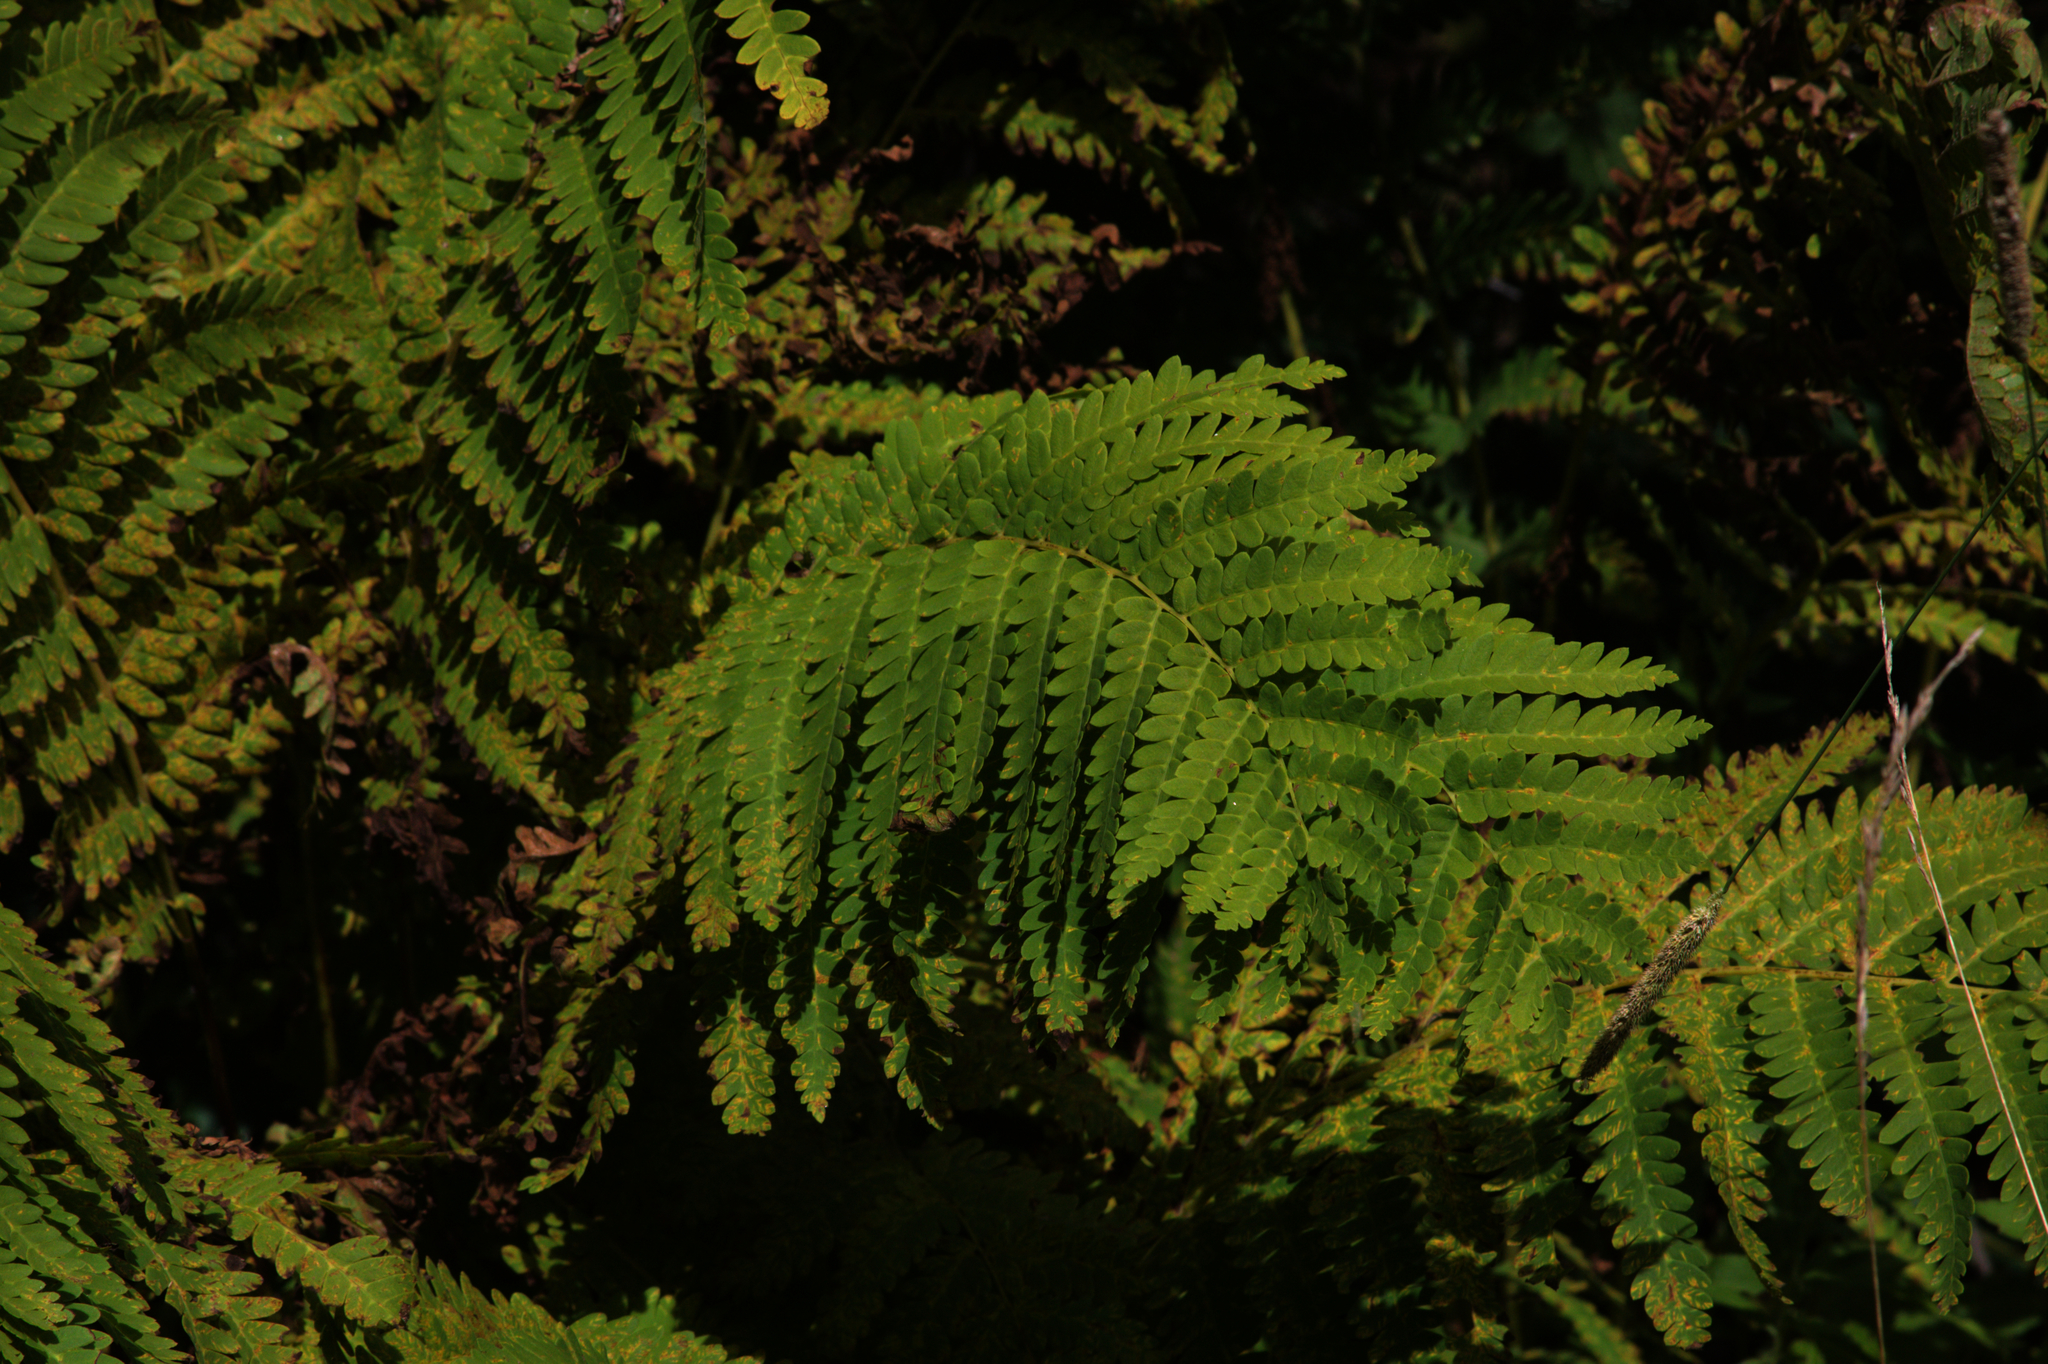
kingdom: Plantae
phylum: Tracheophyta
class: Polypodiopsida
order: Osmundales
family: Osmundaceae
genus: Claytosmunda
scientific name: Claytosmunda claytoniana
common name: Clayton's fern
